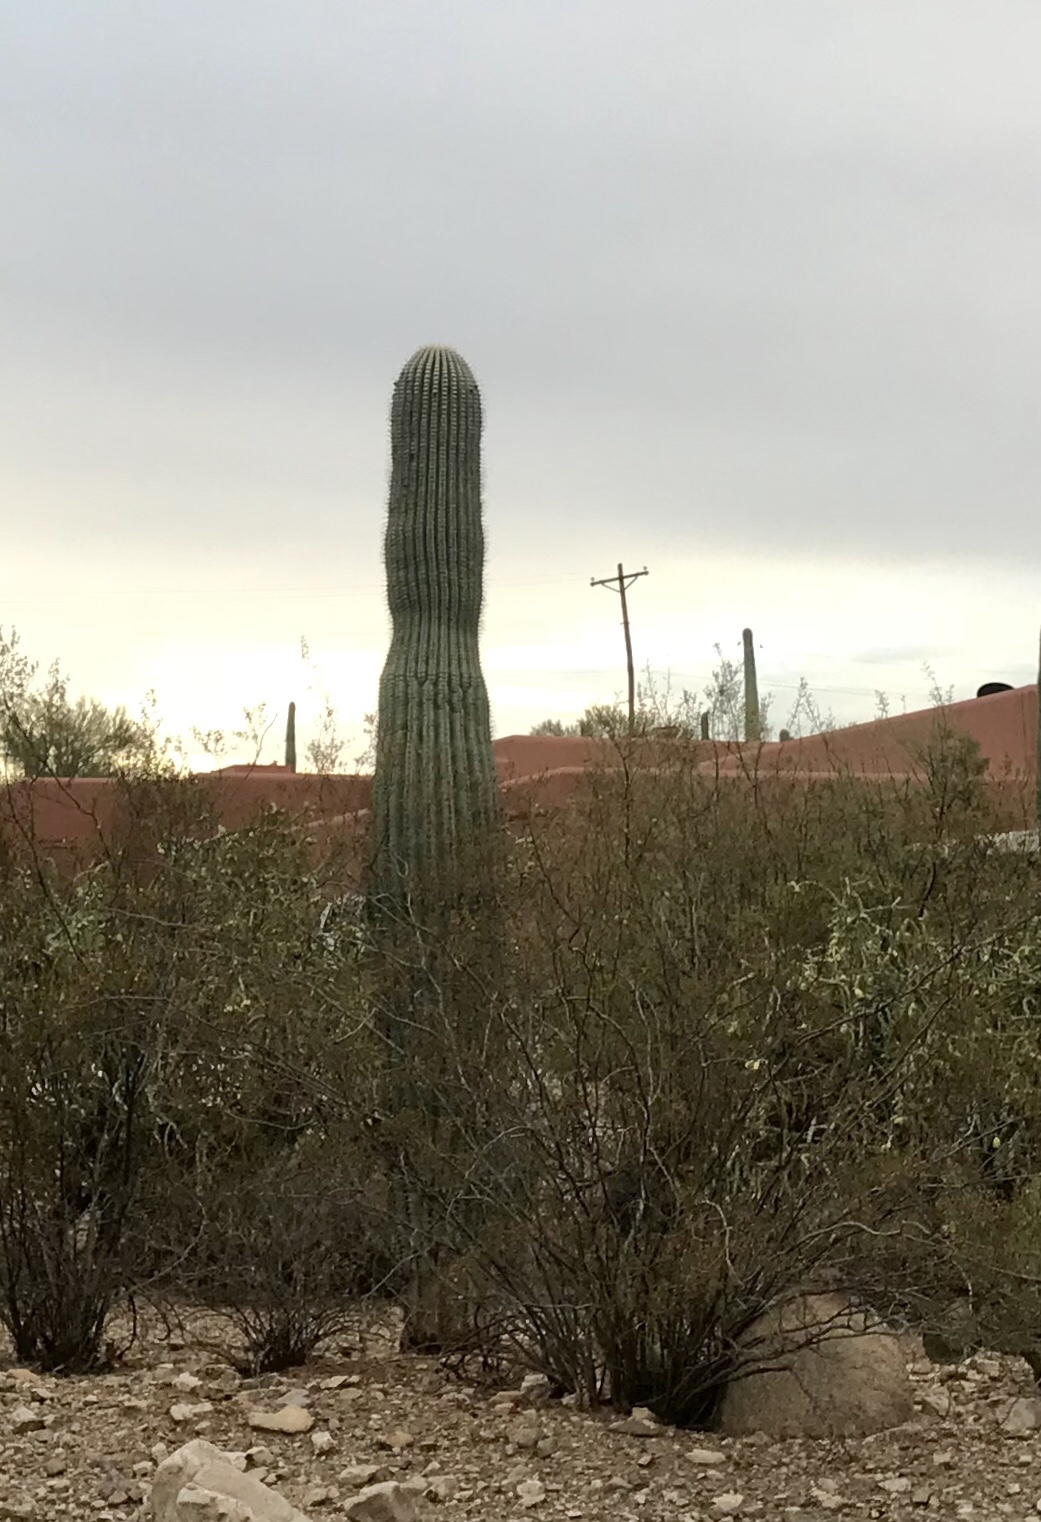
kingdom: Plantae
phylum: Tracheophyta
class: Magnoliopsida
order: Caryophyllales
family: Cactaceae
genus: Carnegiea
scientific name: Carnegiea gigantea
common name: Saguaro
